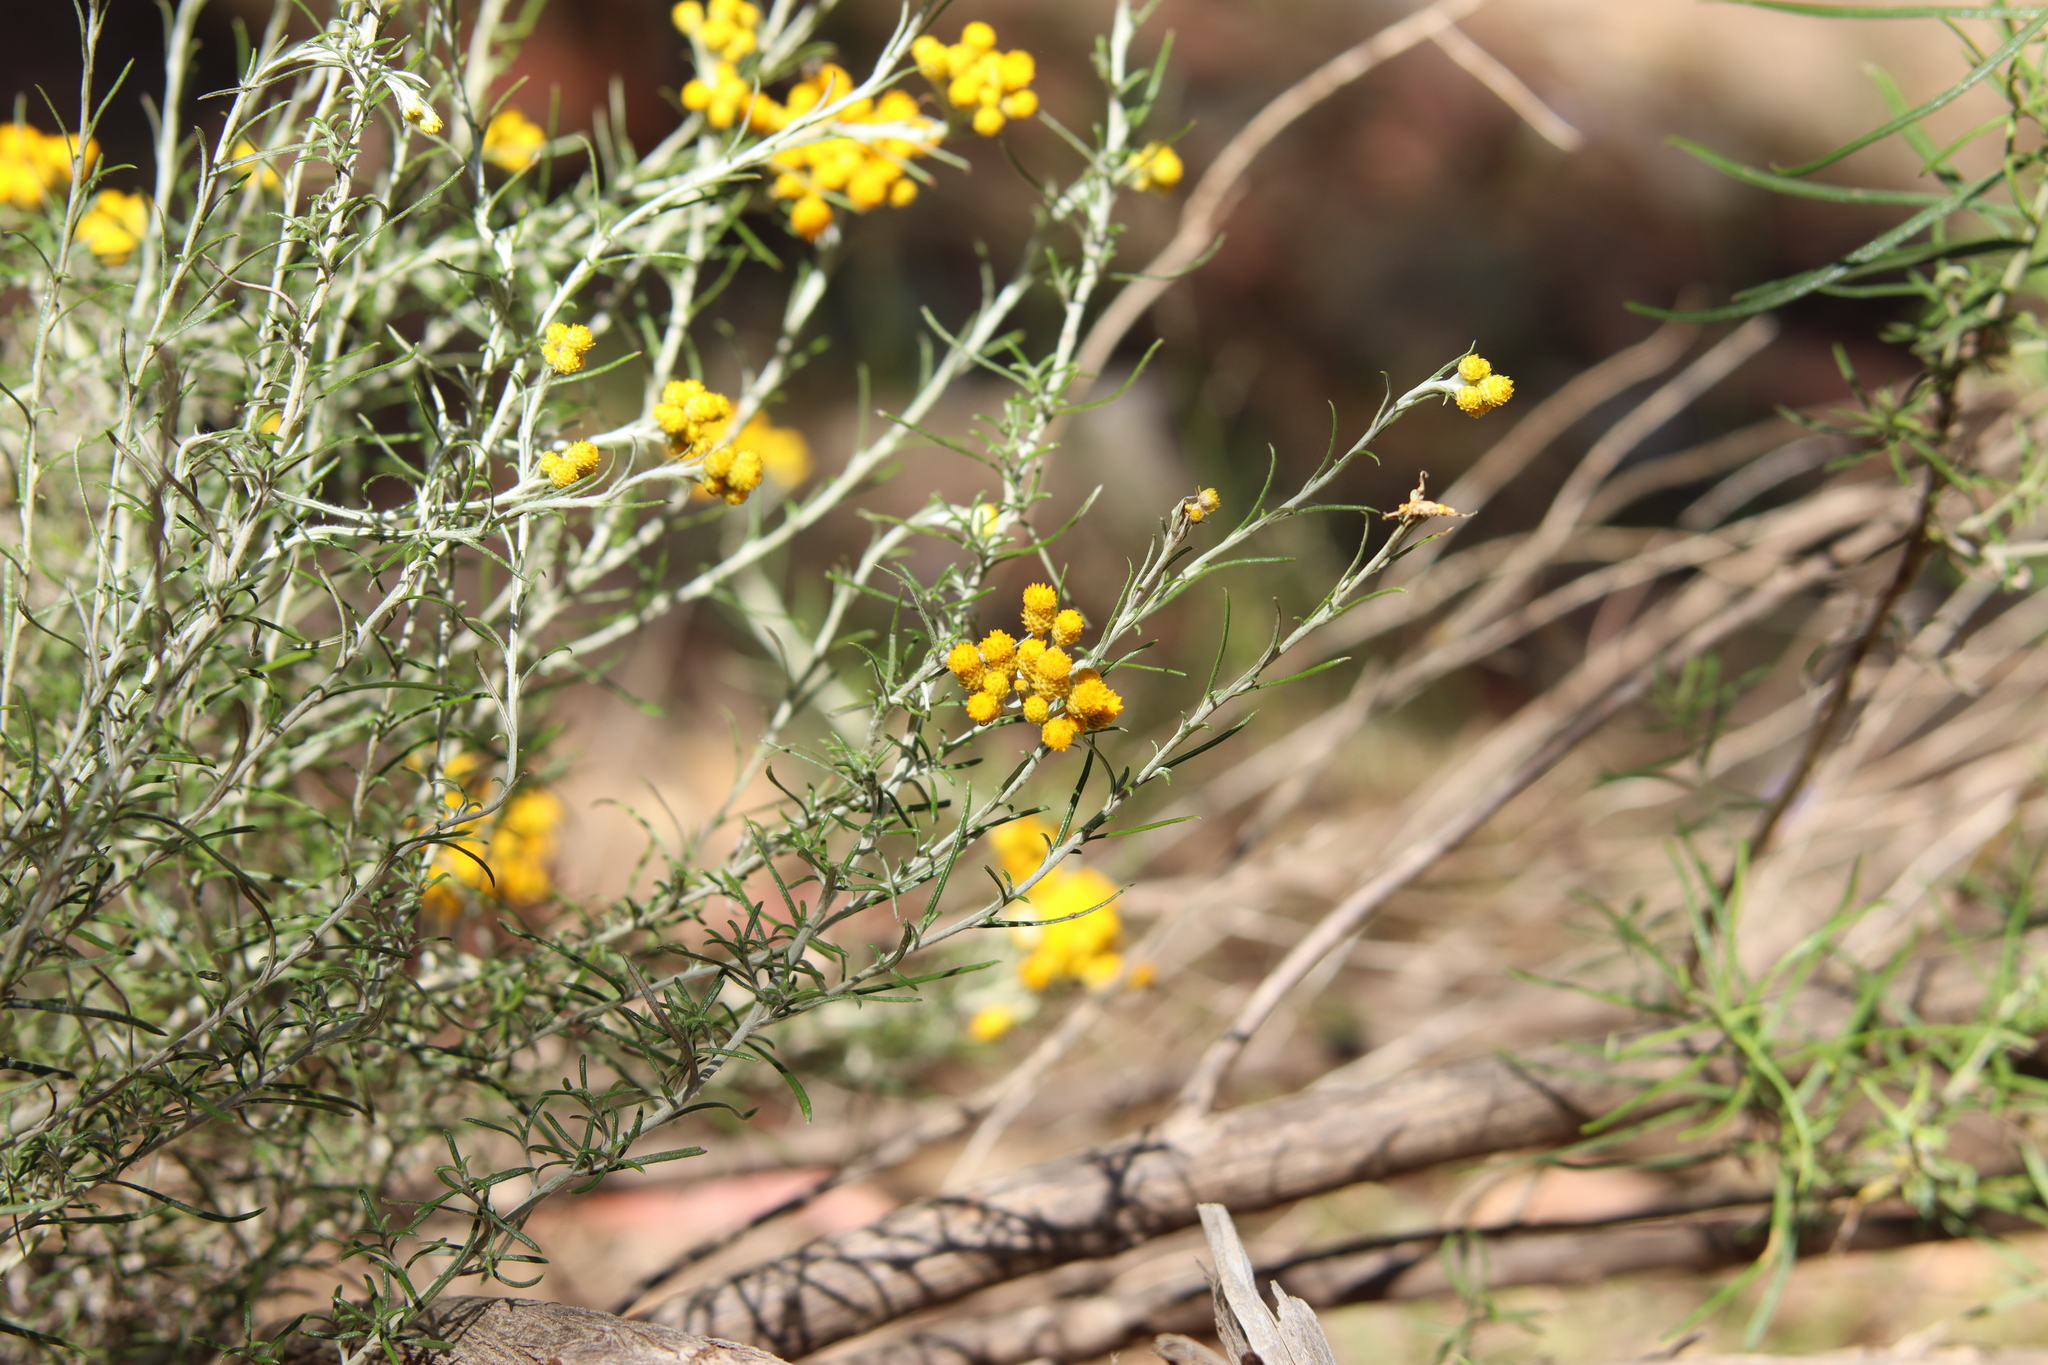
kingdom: Plantae
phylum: Tracheophyta
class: Magnoliopsida
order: Asterales
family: Asteraceae
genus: Chrysocephalum
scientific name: Chrysocephalum semipapposum
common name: Clustered everlasting
